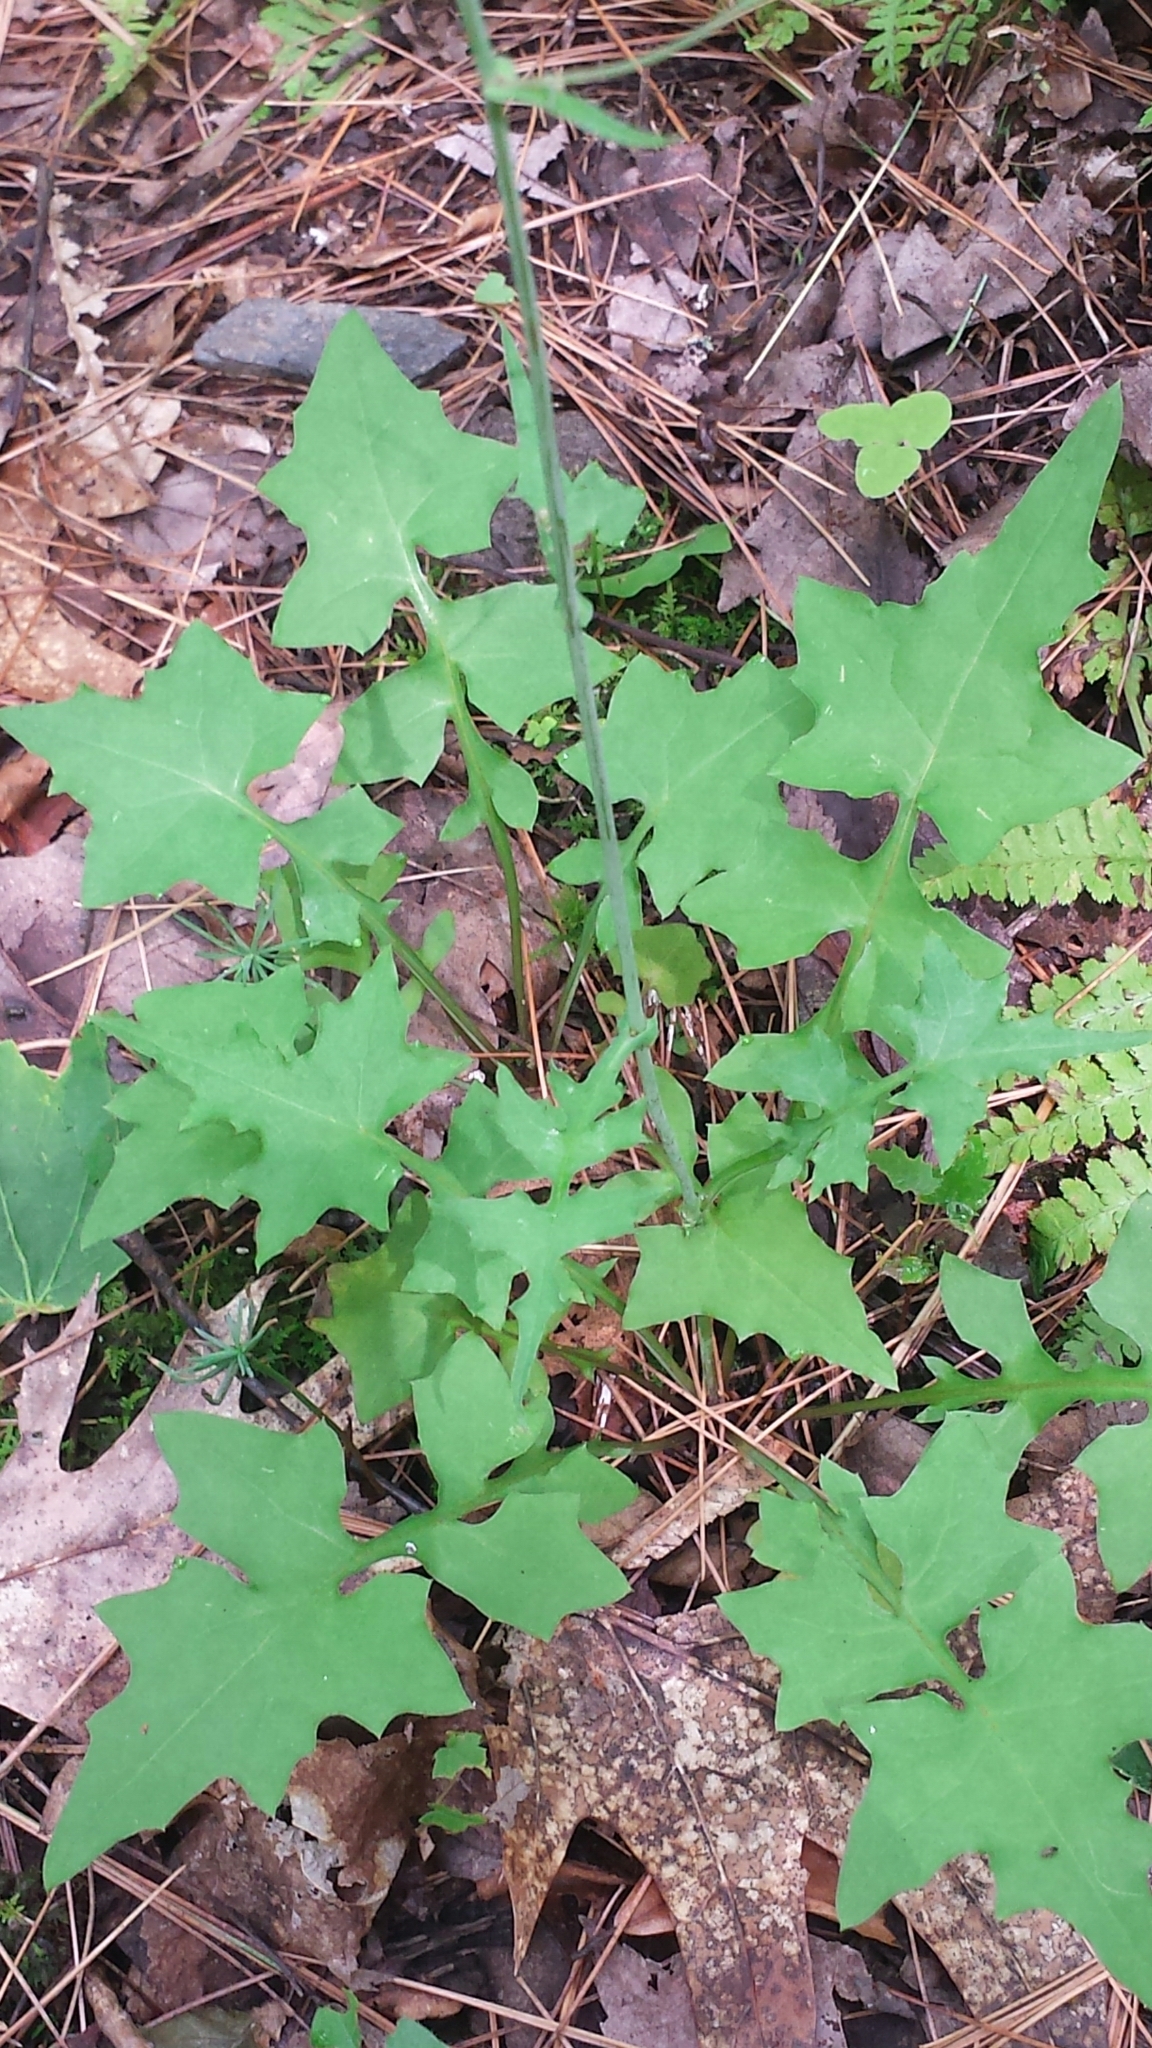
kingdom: Plantae
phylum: Tracheophyta
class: Magnoliopsida
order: Asterales
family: Asteraceae
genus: Mycelis
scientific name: Mycelis muralis
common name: Wall lettuce
